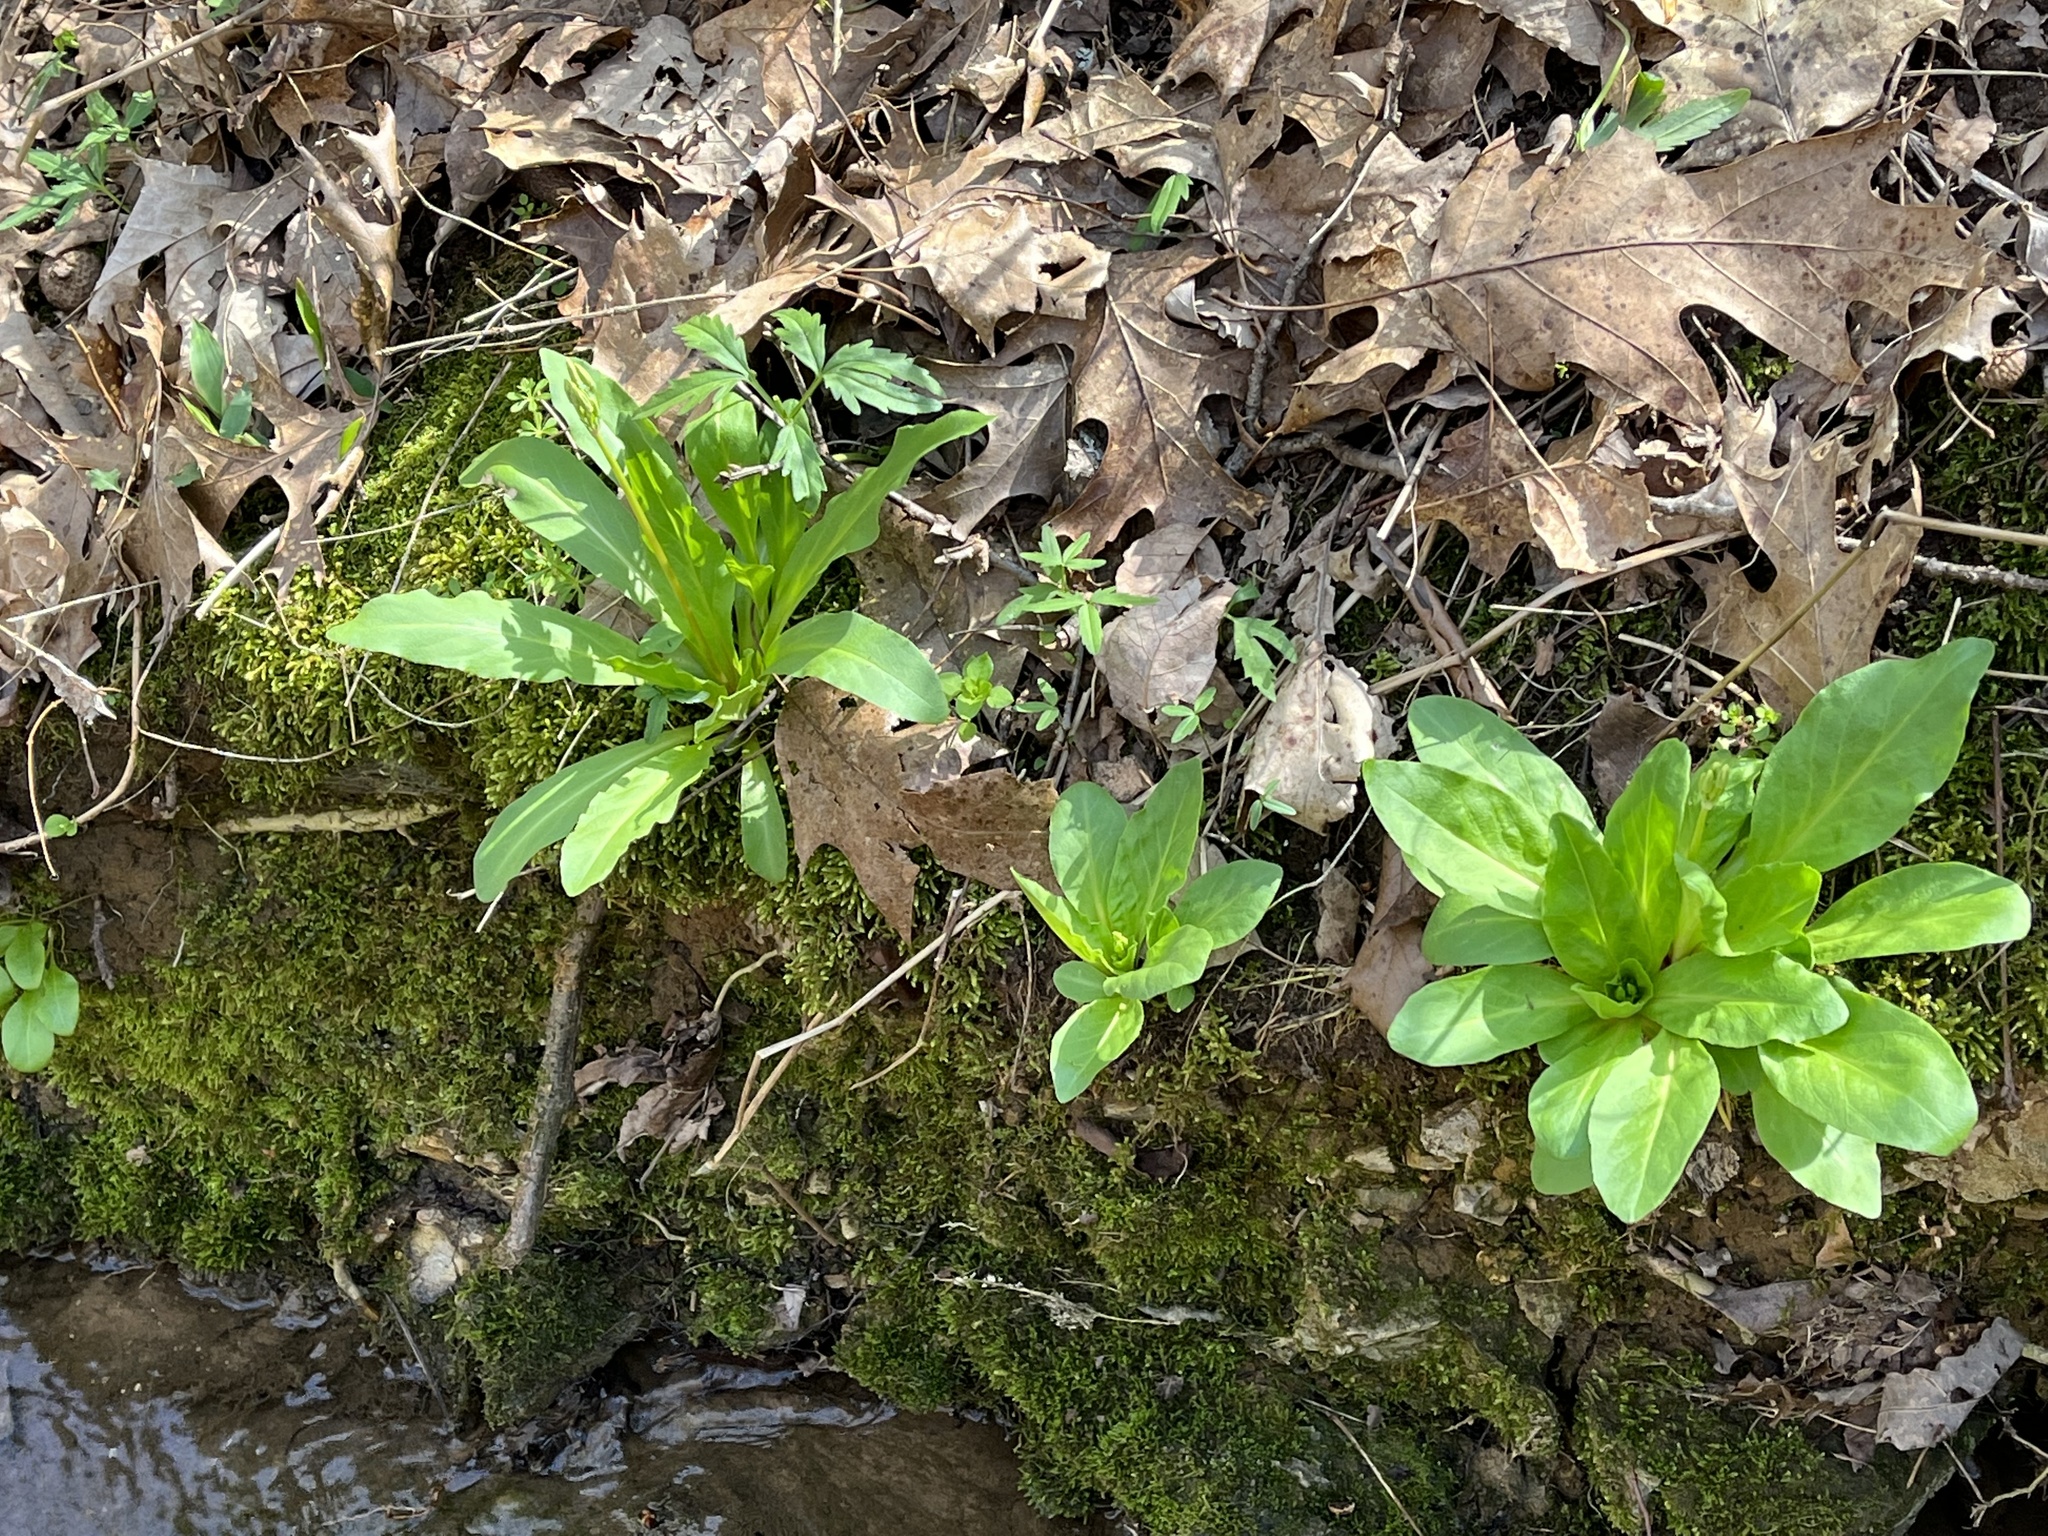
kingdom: Plantae
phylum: Tracheophyta
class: Magnoliopsida
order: Ericales
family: Primulaceae
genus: Dodecatheon
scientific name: Dodecatheon meadia
